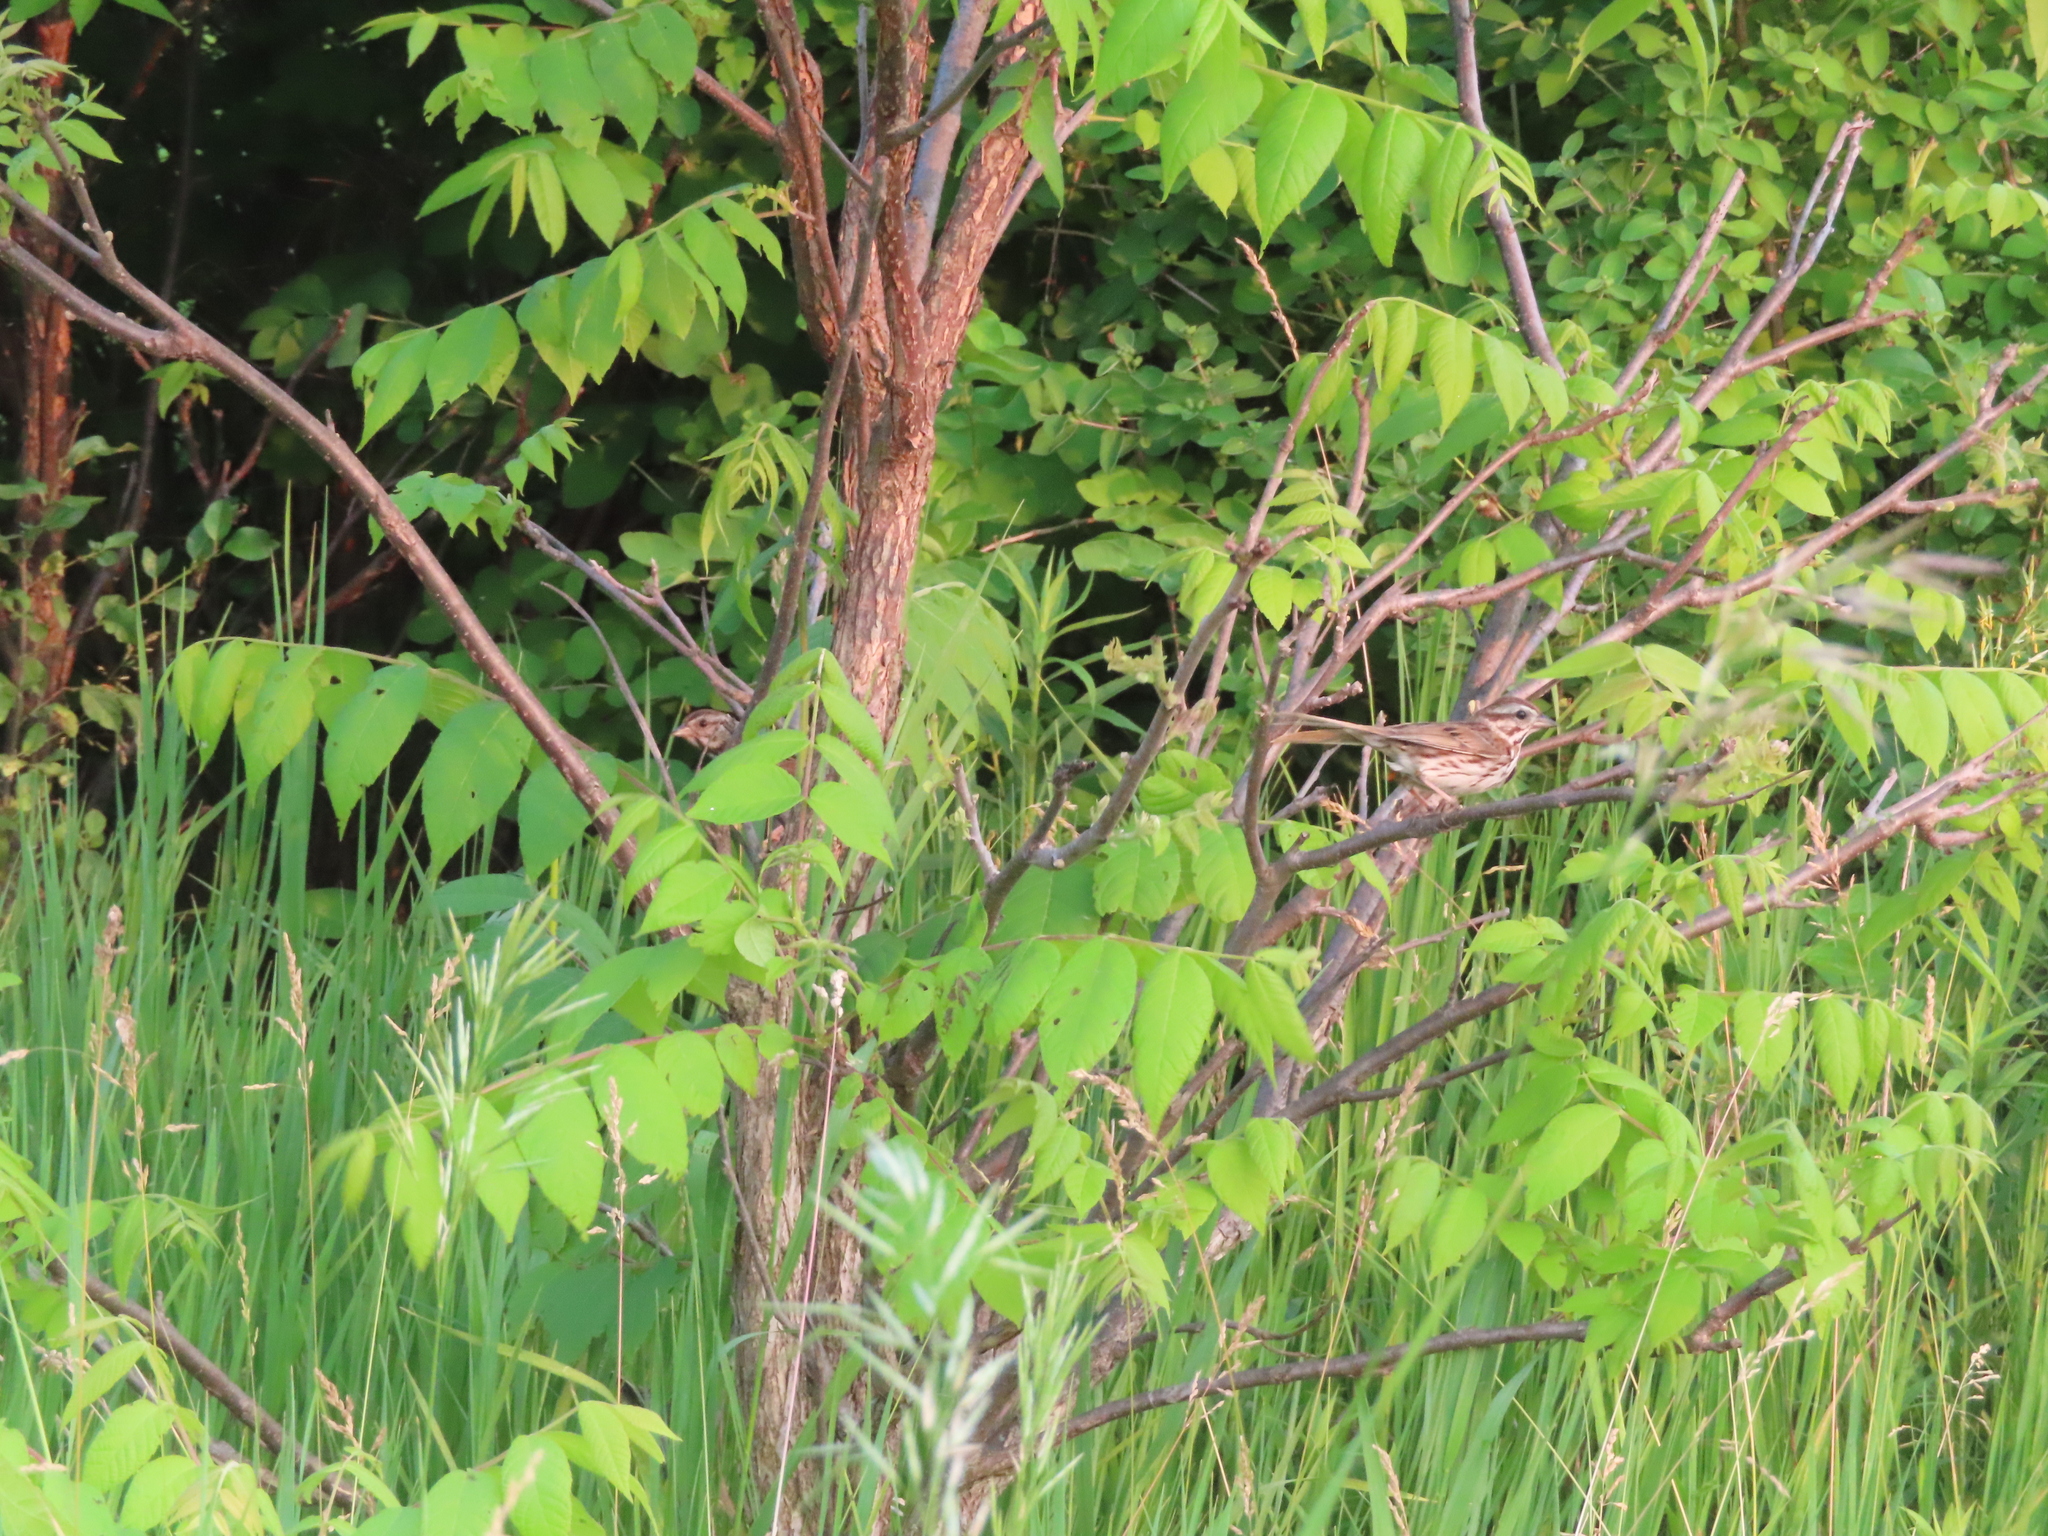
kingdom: Animalia
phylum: Chordata
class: Aves
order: Passeriformes
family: Passerellidae
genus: Melospiza
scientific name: Melospiza melodia
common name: Song sparrow
